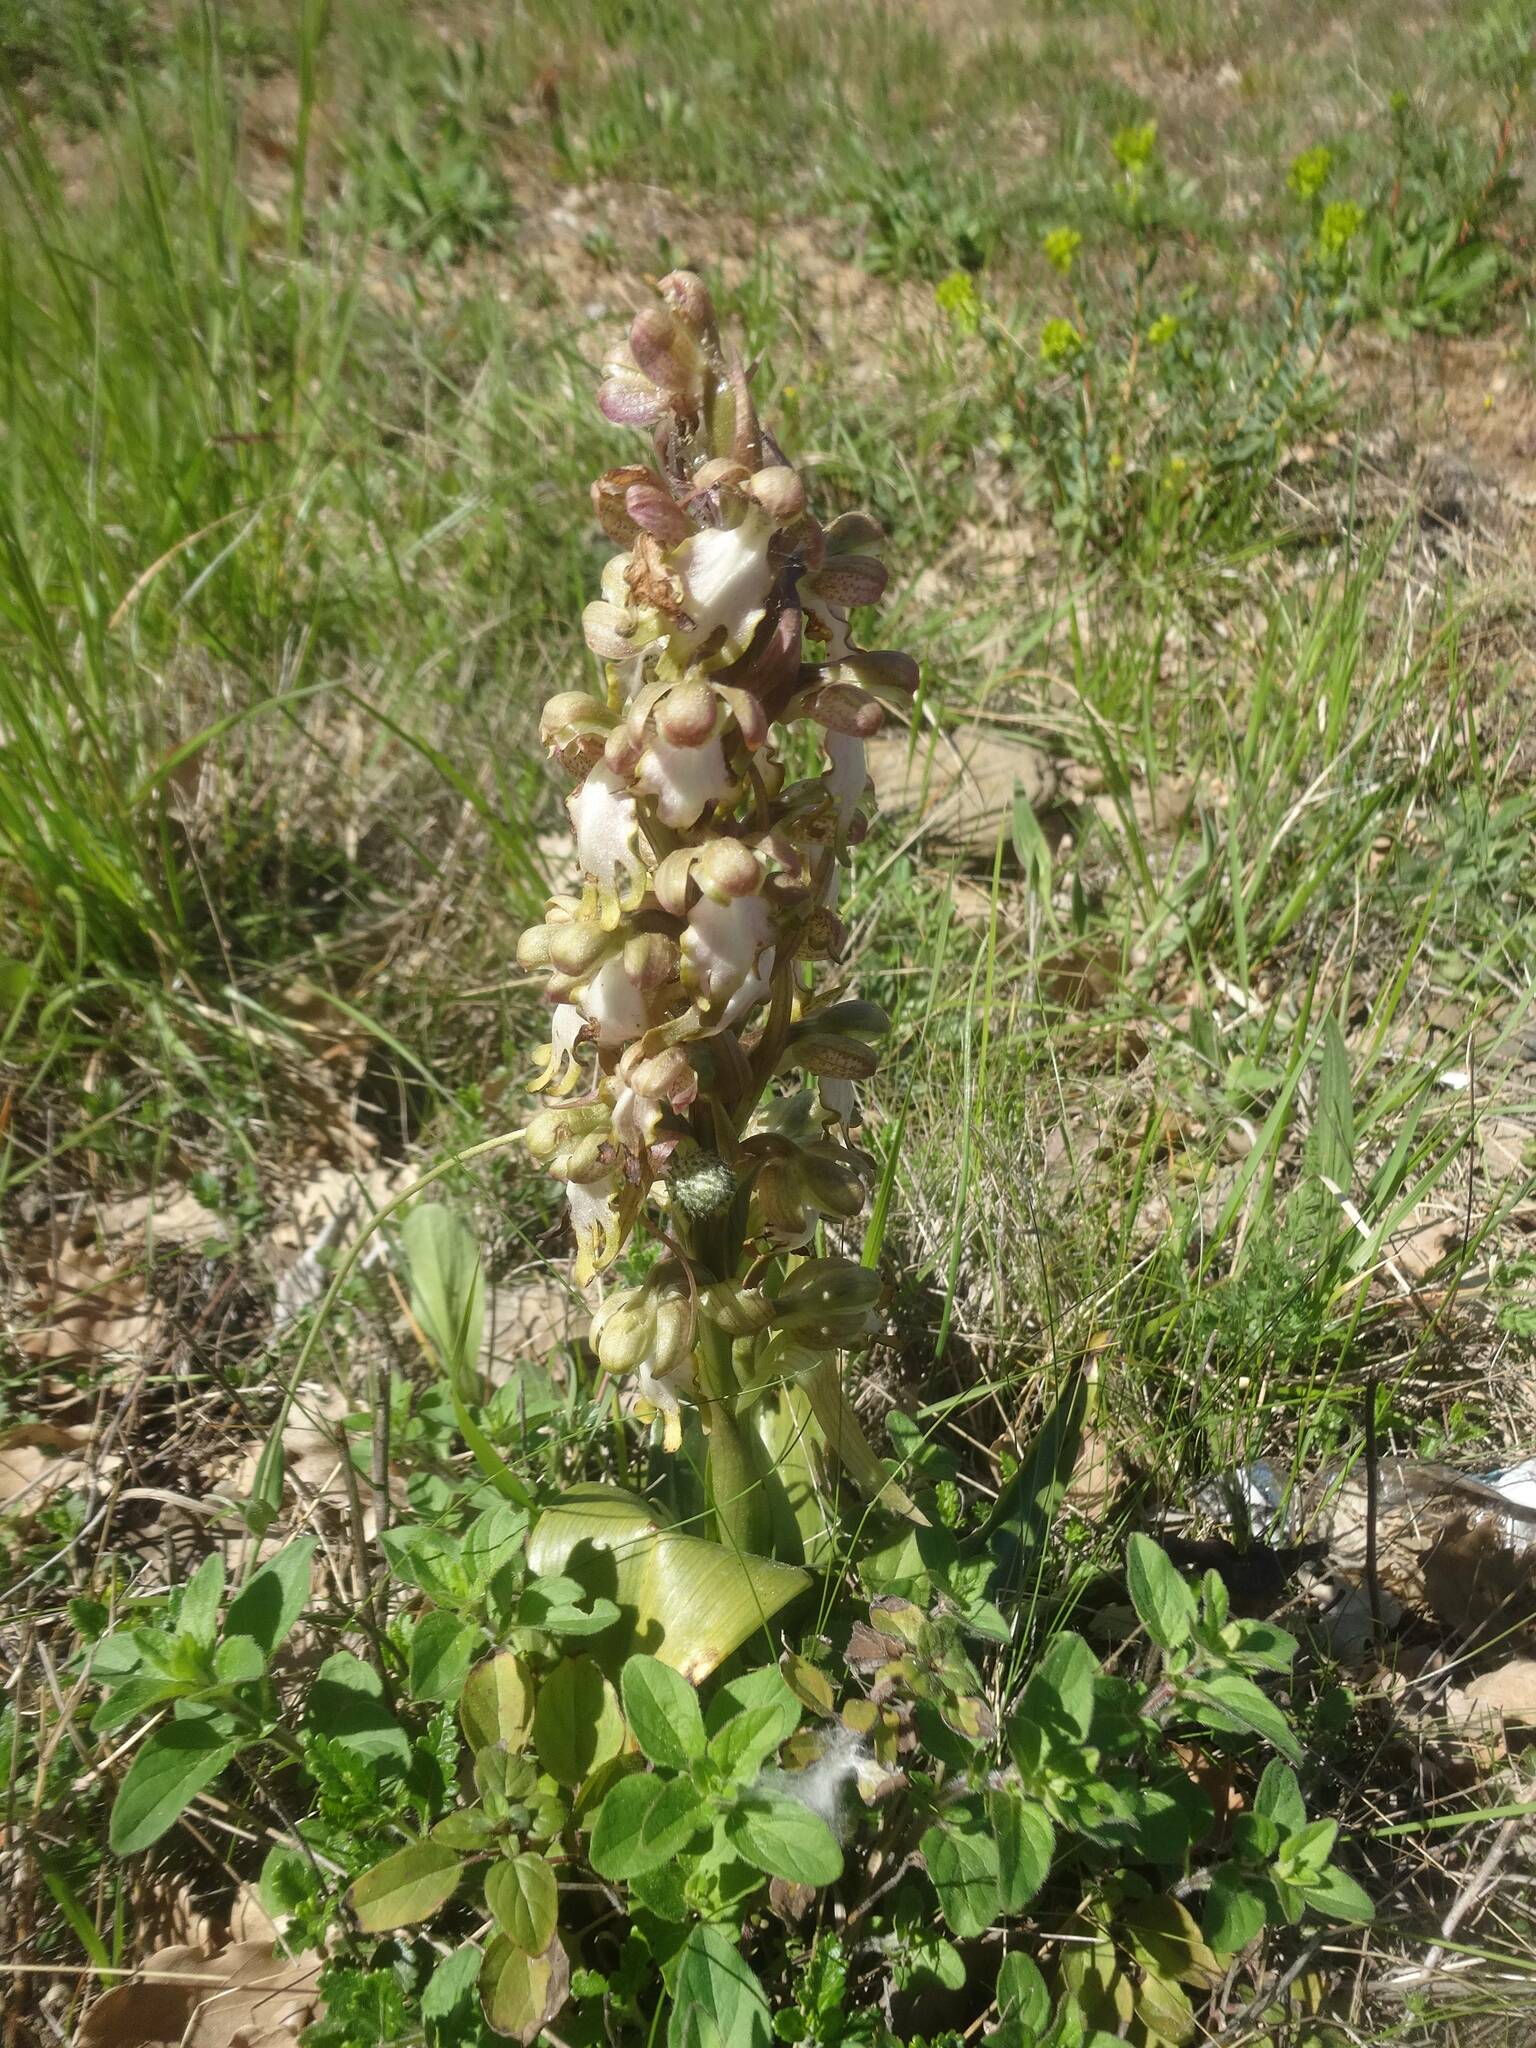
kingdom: Plantae
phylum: Tracheophyta
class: Liliopsida
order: Asparagales
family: Orchidaceae
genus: Himantoglossum
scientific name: Himantoglossum robertianum
